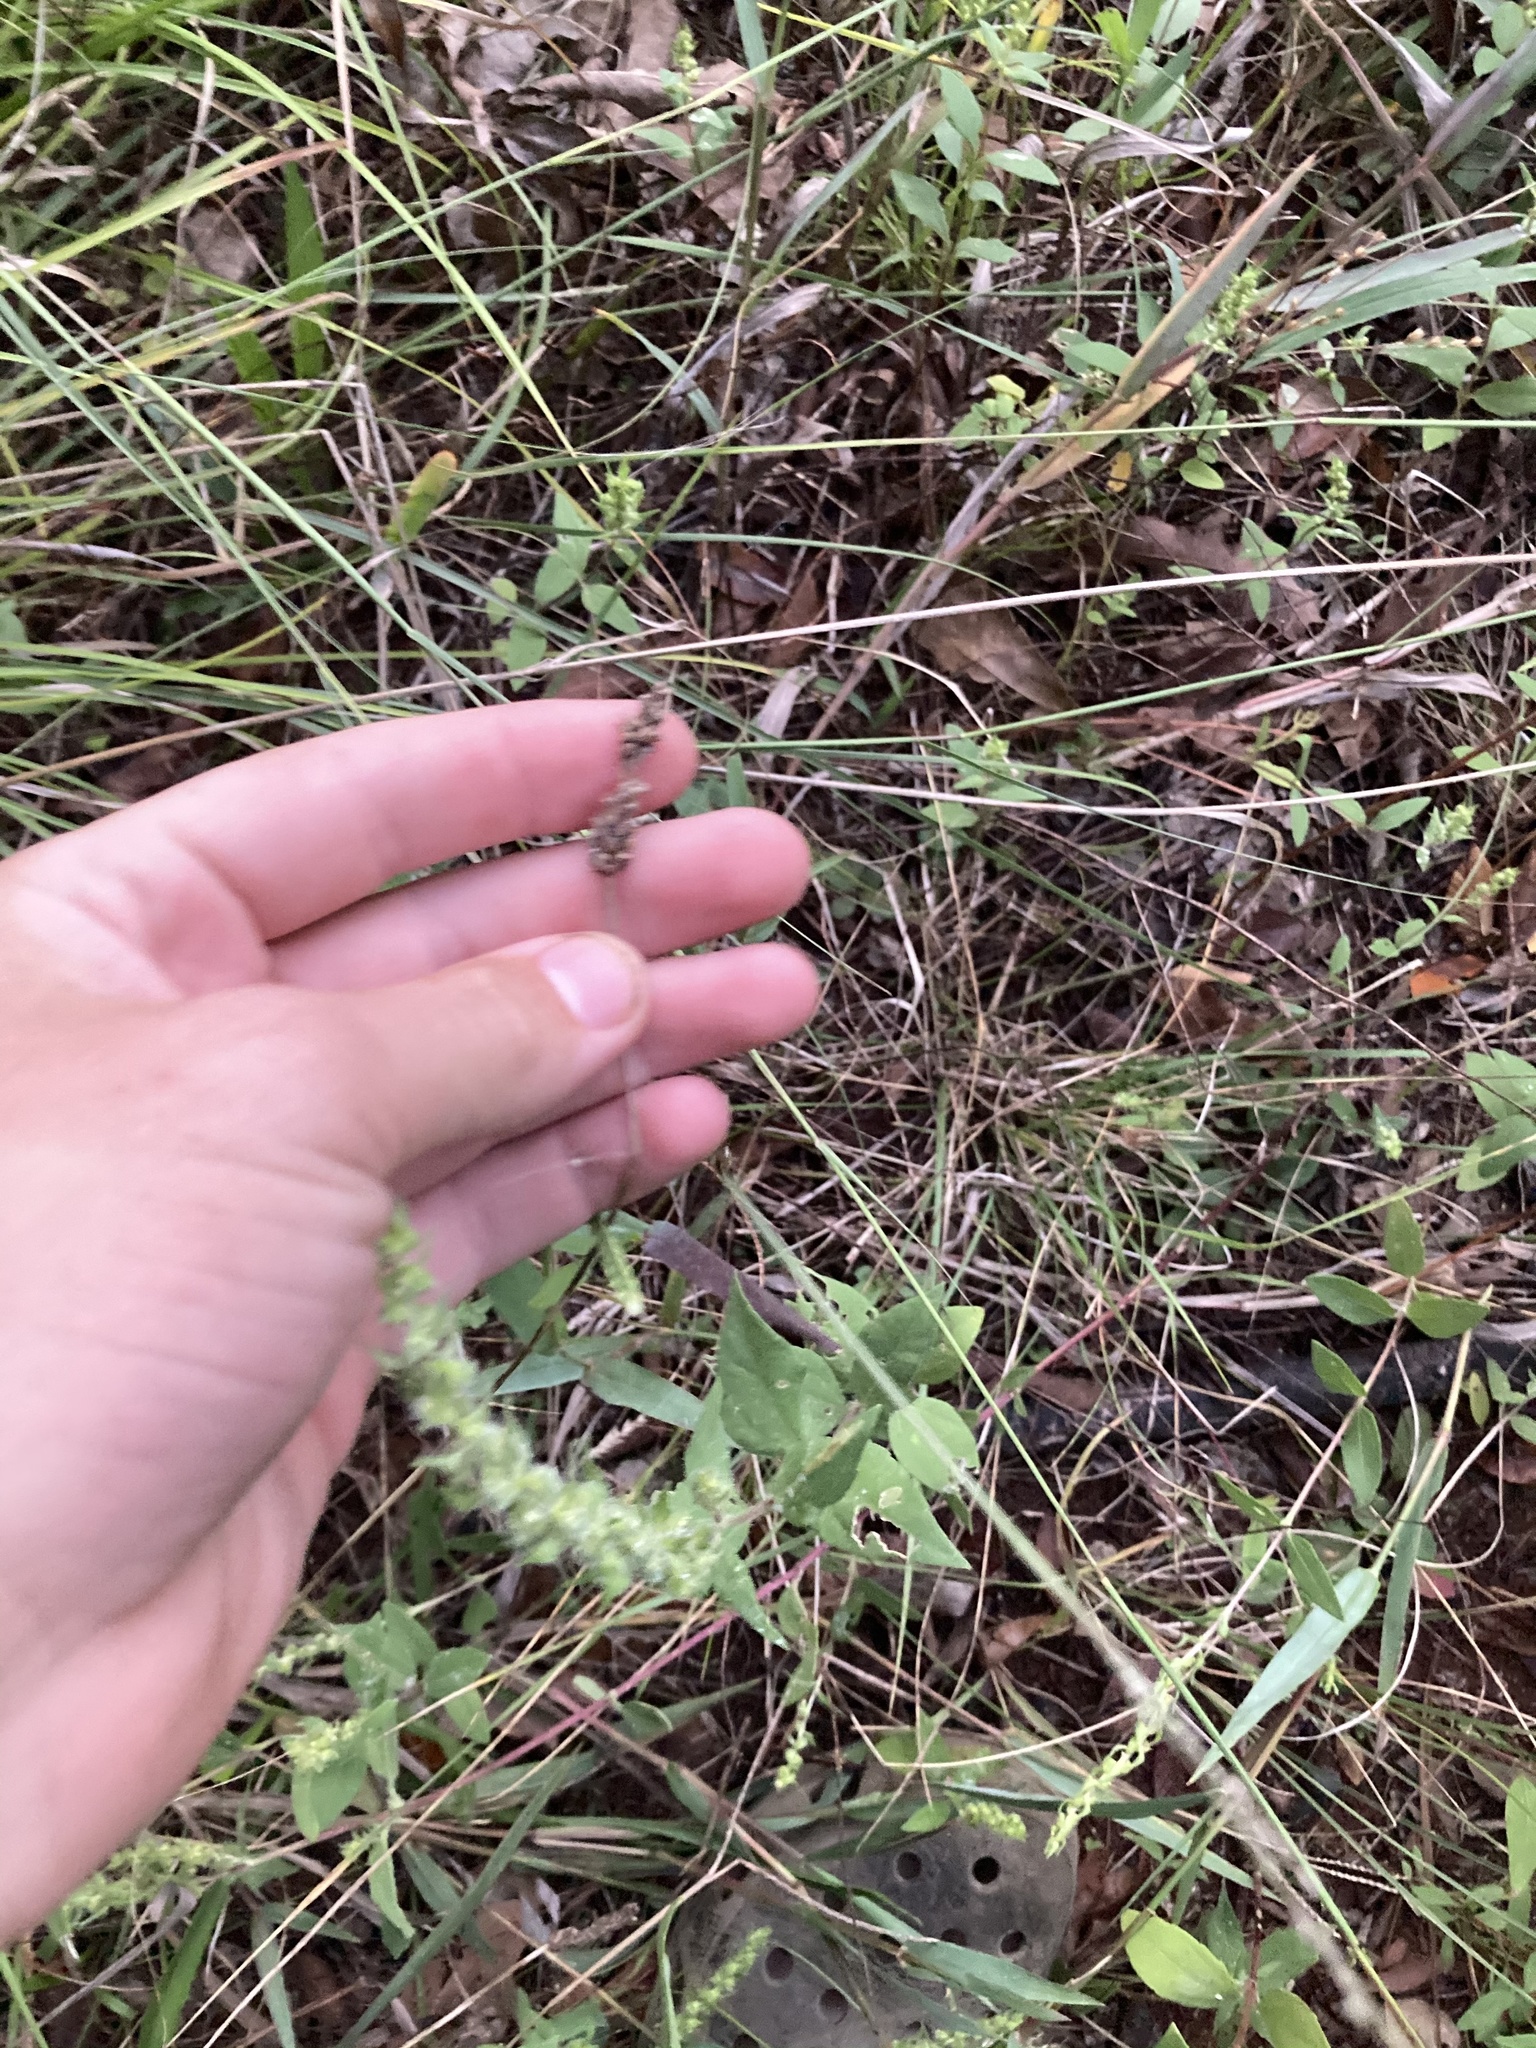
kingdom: Plantae
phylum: Tracheophyta
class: Magnoliopsida
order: Asterales
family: Asteraceae
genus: Iva
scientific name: Iva annua
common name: Marsh-elder
